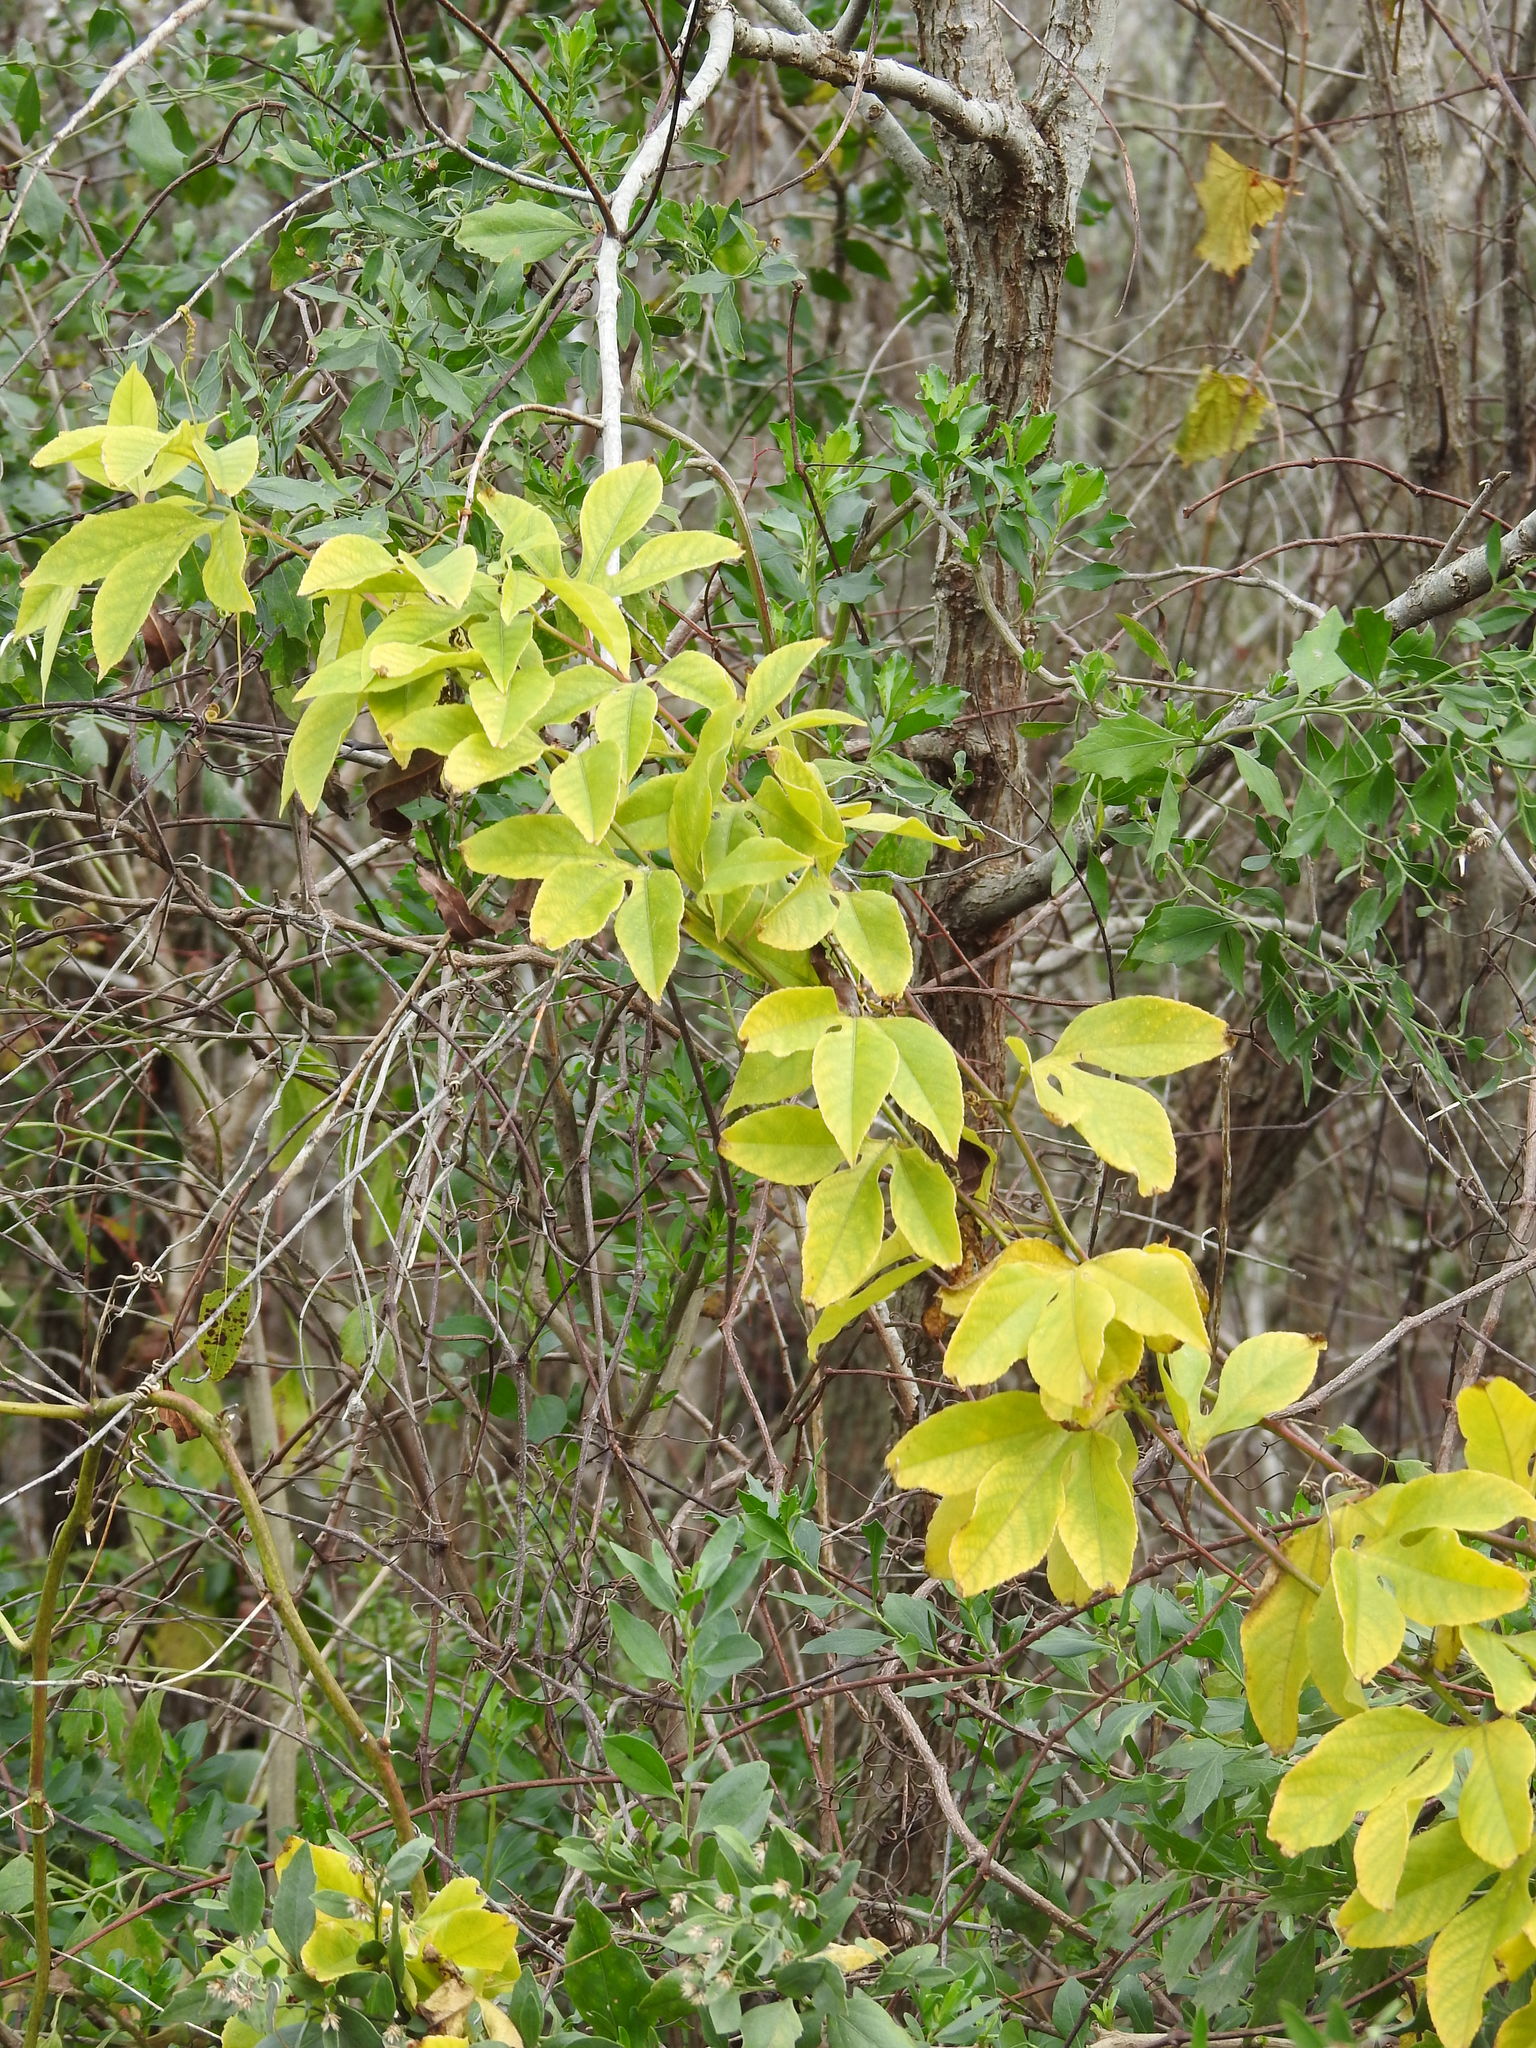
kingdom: Plantae
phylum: Tracheophyta
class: Magnoliopsida
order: Malpighiales
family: Passifloraceae
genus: Passiflora
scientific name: Passiflora incarnata
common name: Apricot-vine
